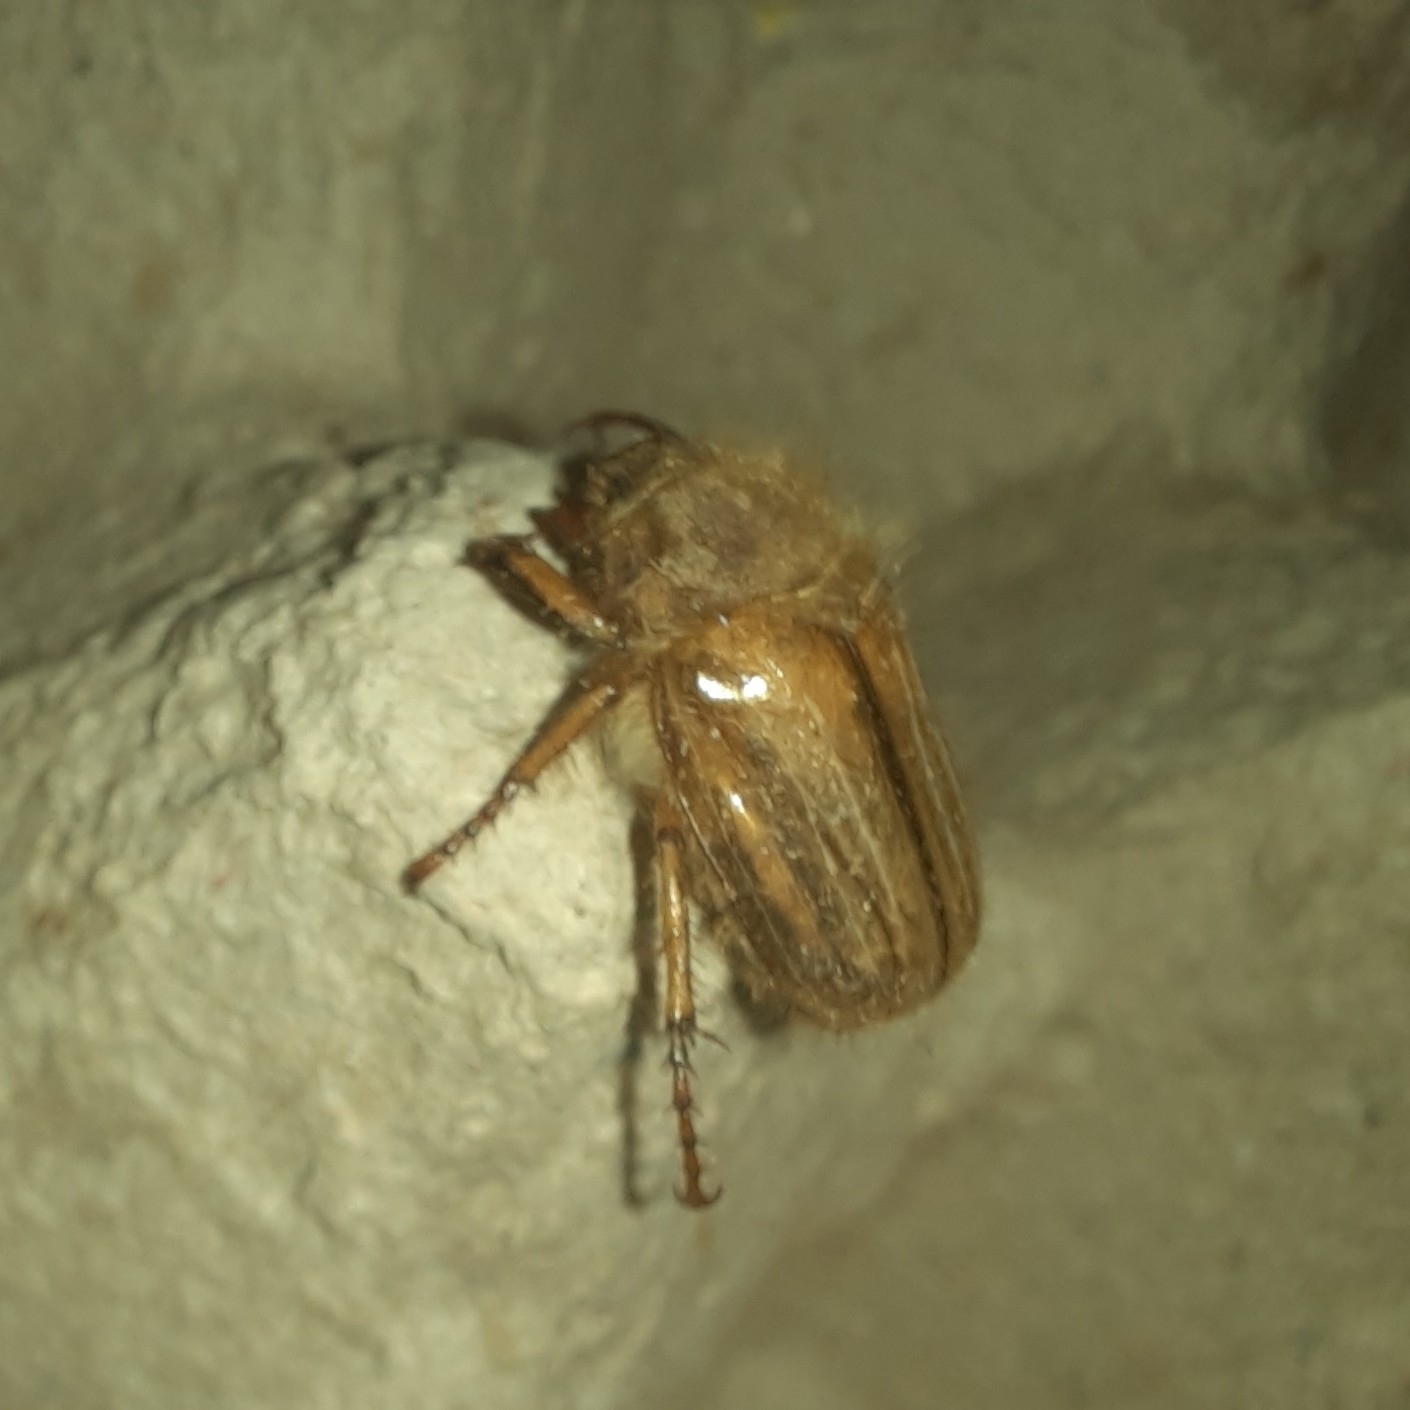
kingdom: Animalia
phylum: Arthropoda
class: Insecta
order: Coleoptera
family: Scarabaeidae
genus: Amphimallon
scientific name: Amphimallon solstitiale
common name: Summer chafer
